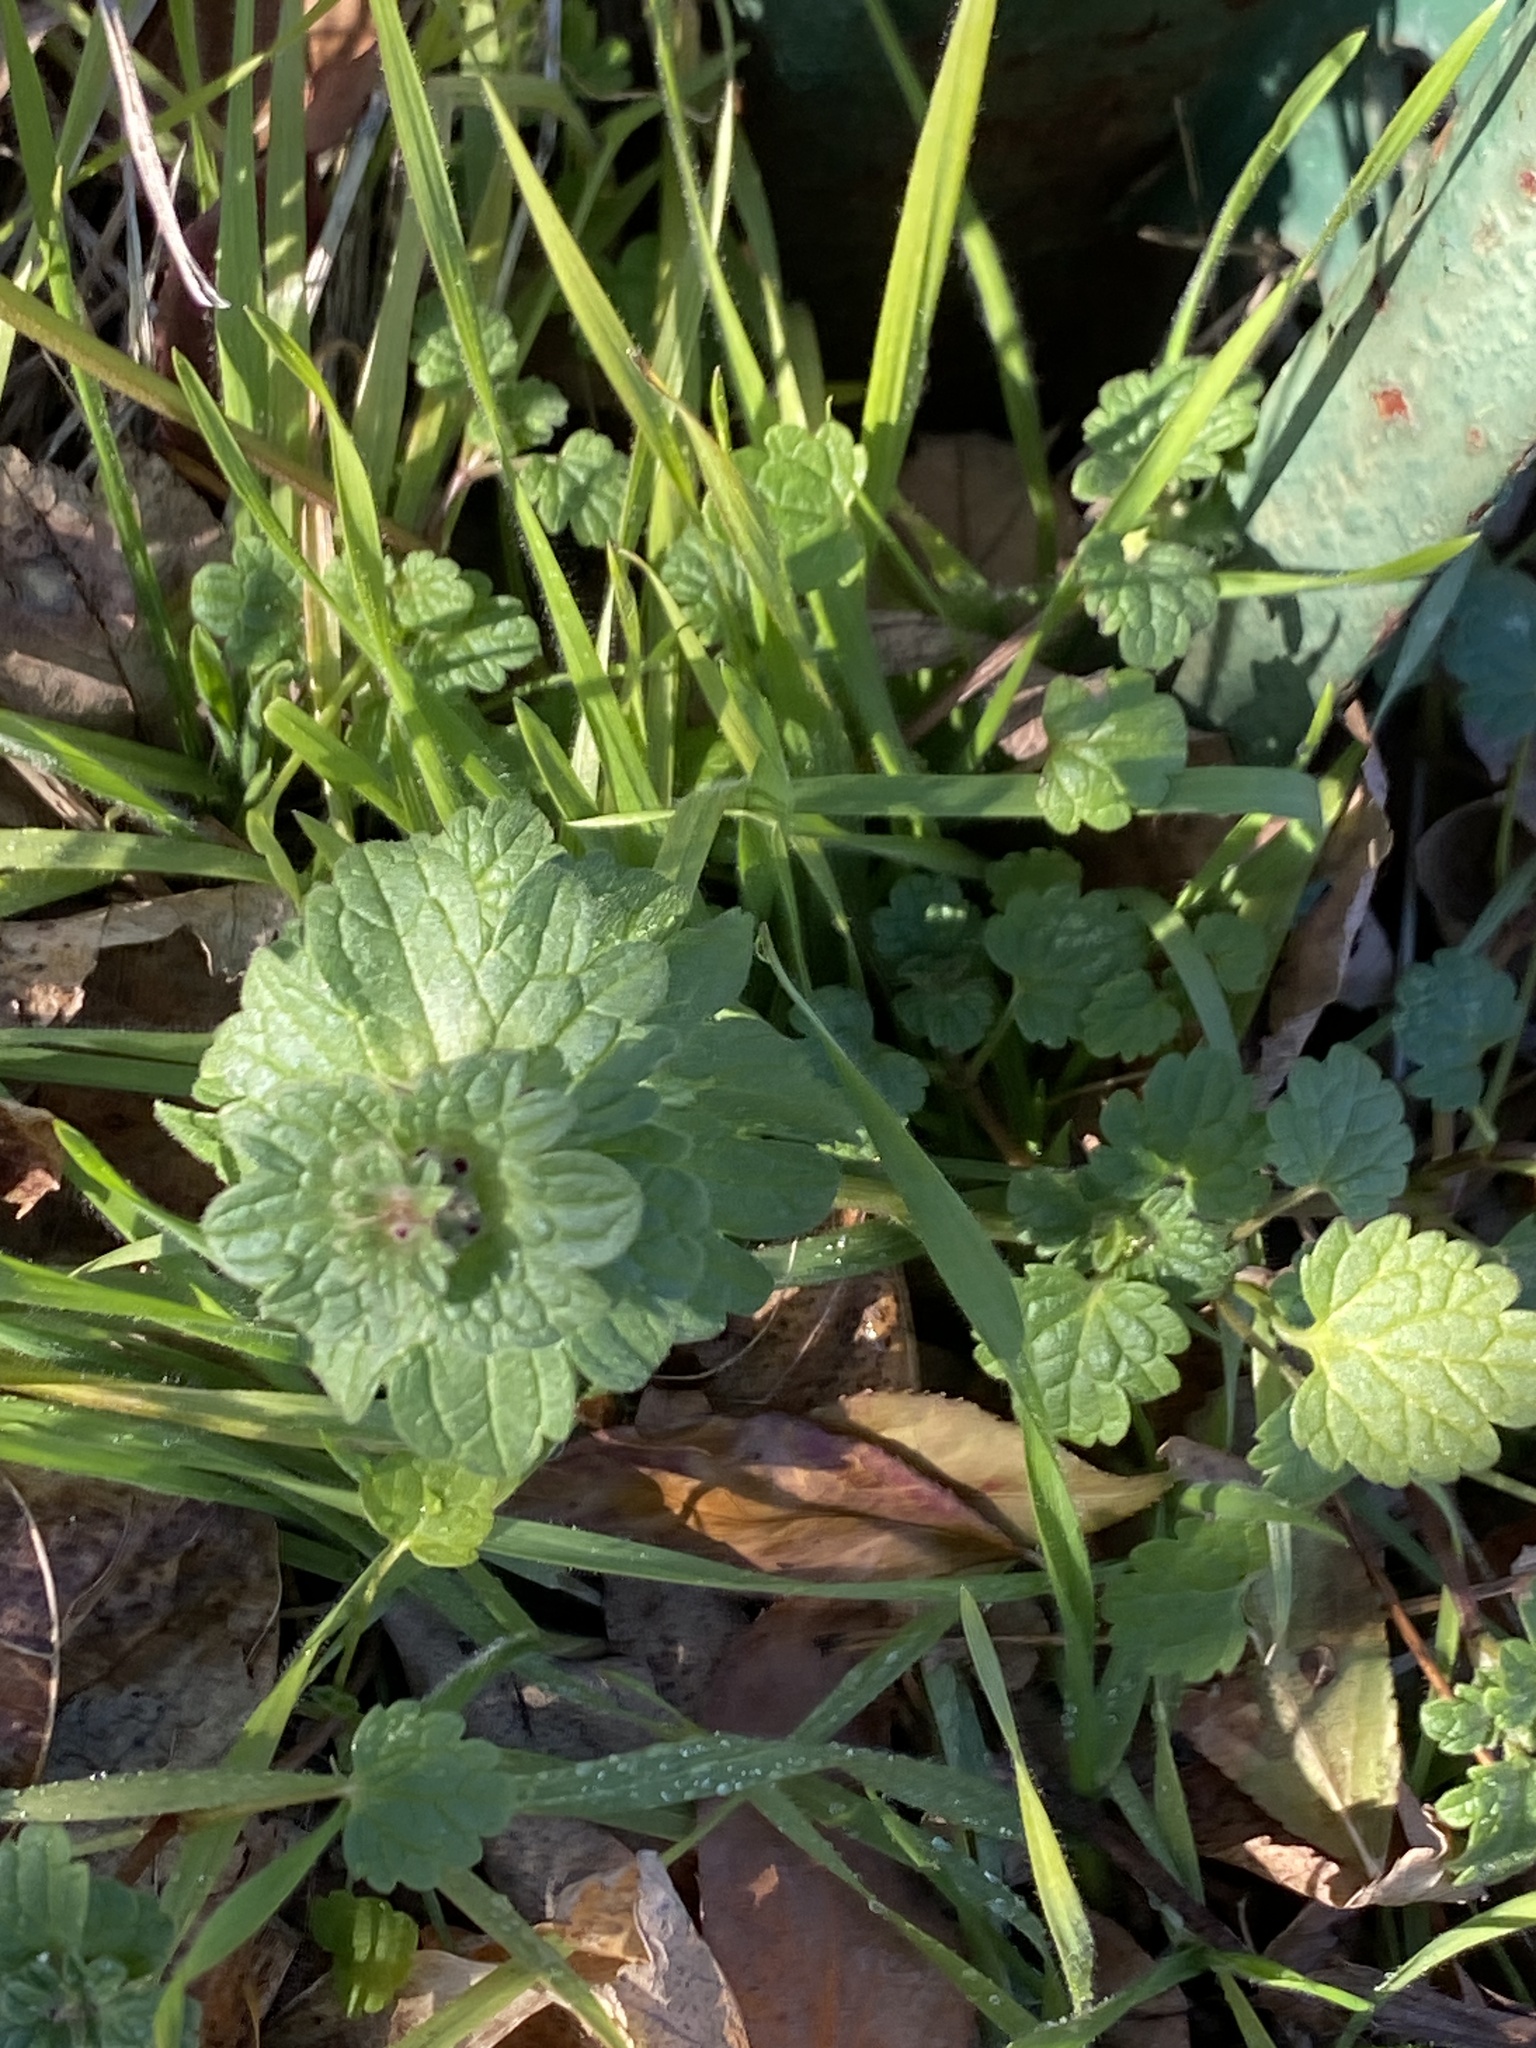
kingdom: Plantae
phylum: Tracheophyta
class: Magnoliopsida
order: Lamiales
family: Lamiaceae
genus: Lamium
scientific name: Lamium amplexicaule
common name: Henbit dead-nettle
